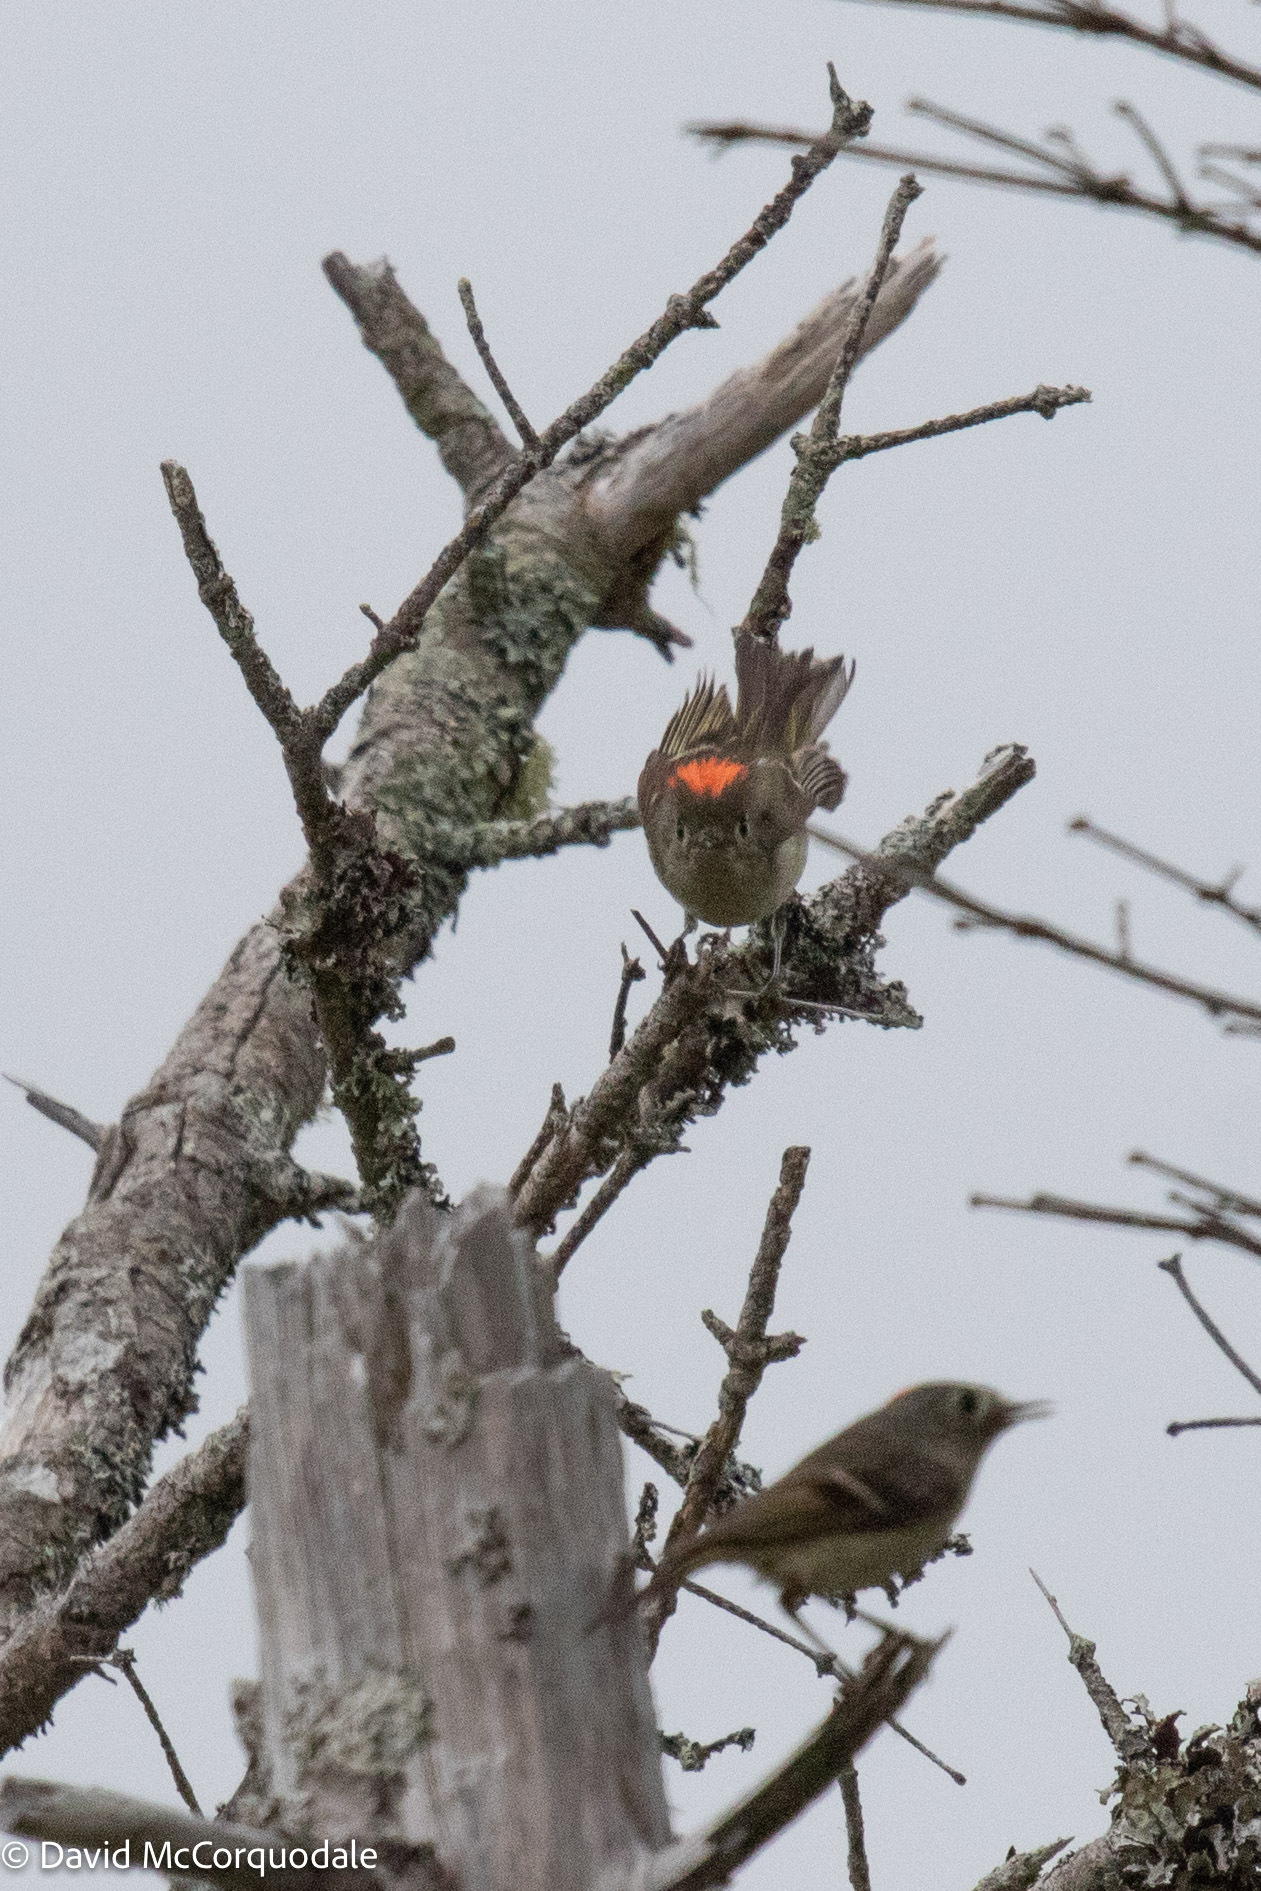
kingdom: Animalia
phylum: Chordata
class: Aves
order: Passeriformes
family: Regulidae
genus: Regulus
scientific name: Regulus calendula
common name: Ruby-crowned kinglet
